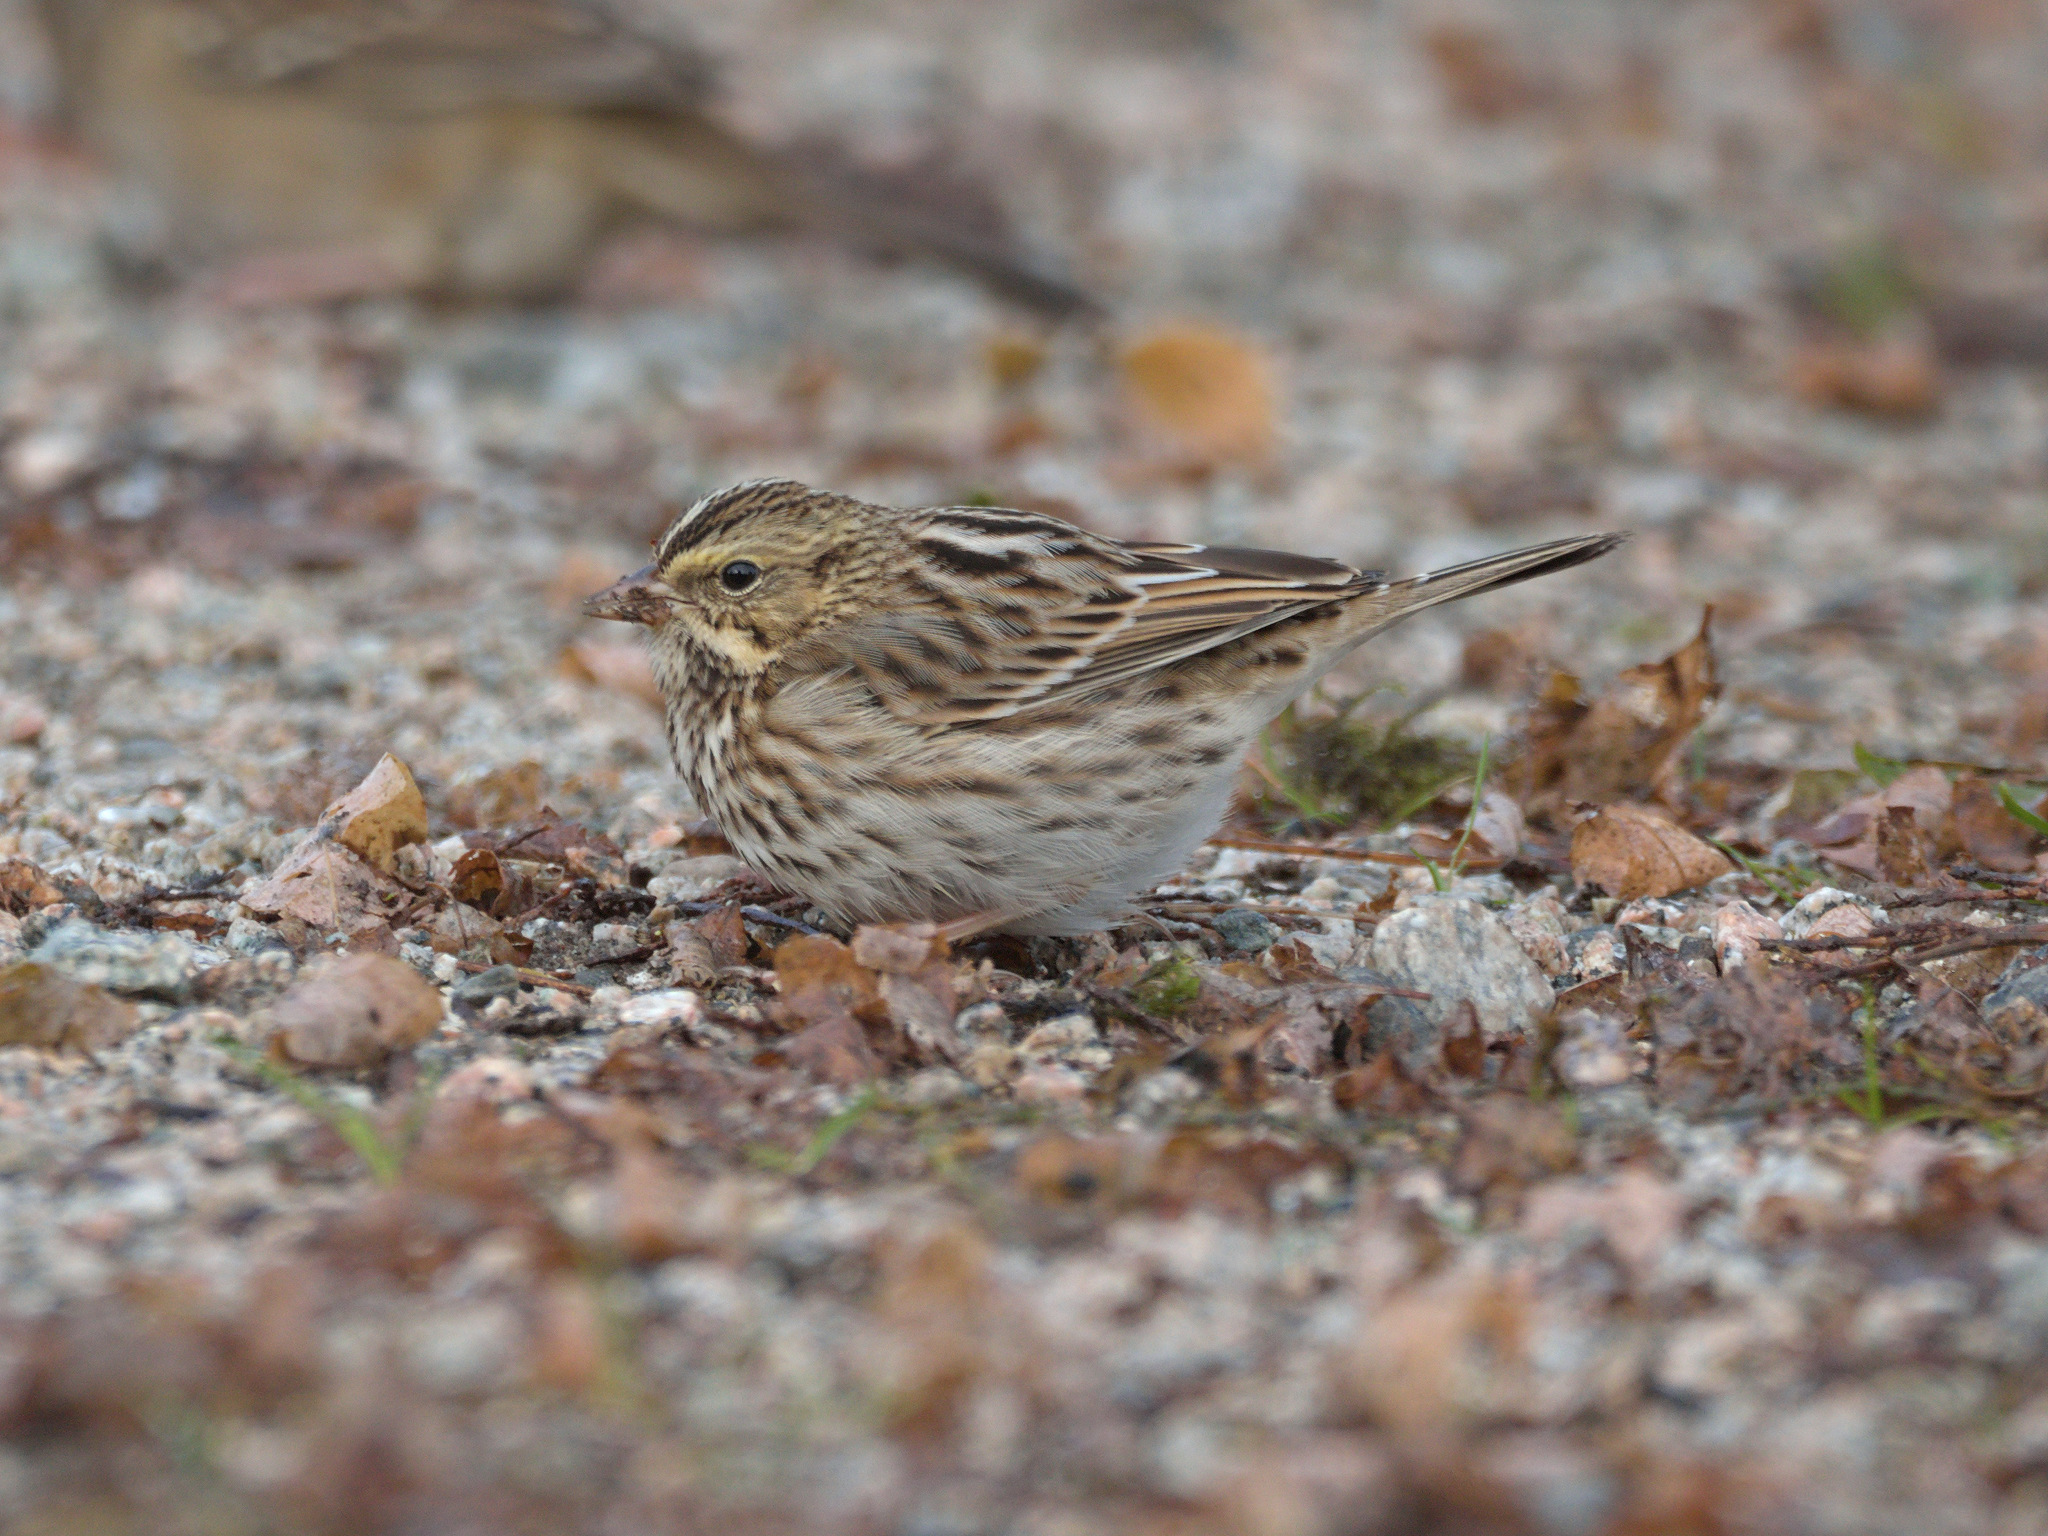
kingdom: Animalia
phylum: Chordata
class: Aves
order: Passeriformes
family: Passerellidae
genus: Passerculus
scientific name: Passerculus sandwichensis
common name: Savannah sparrow
